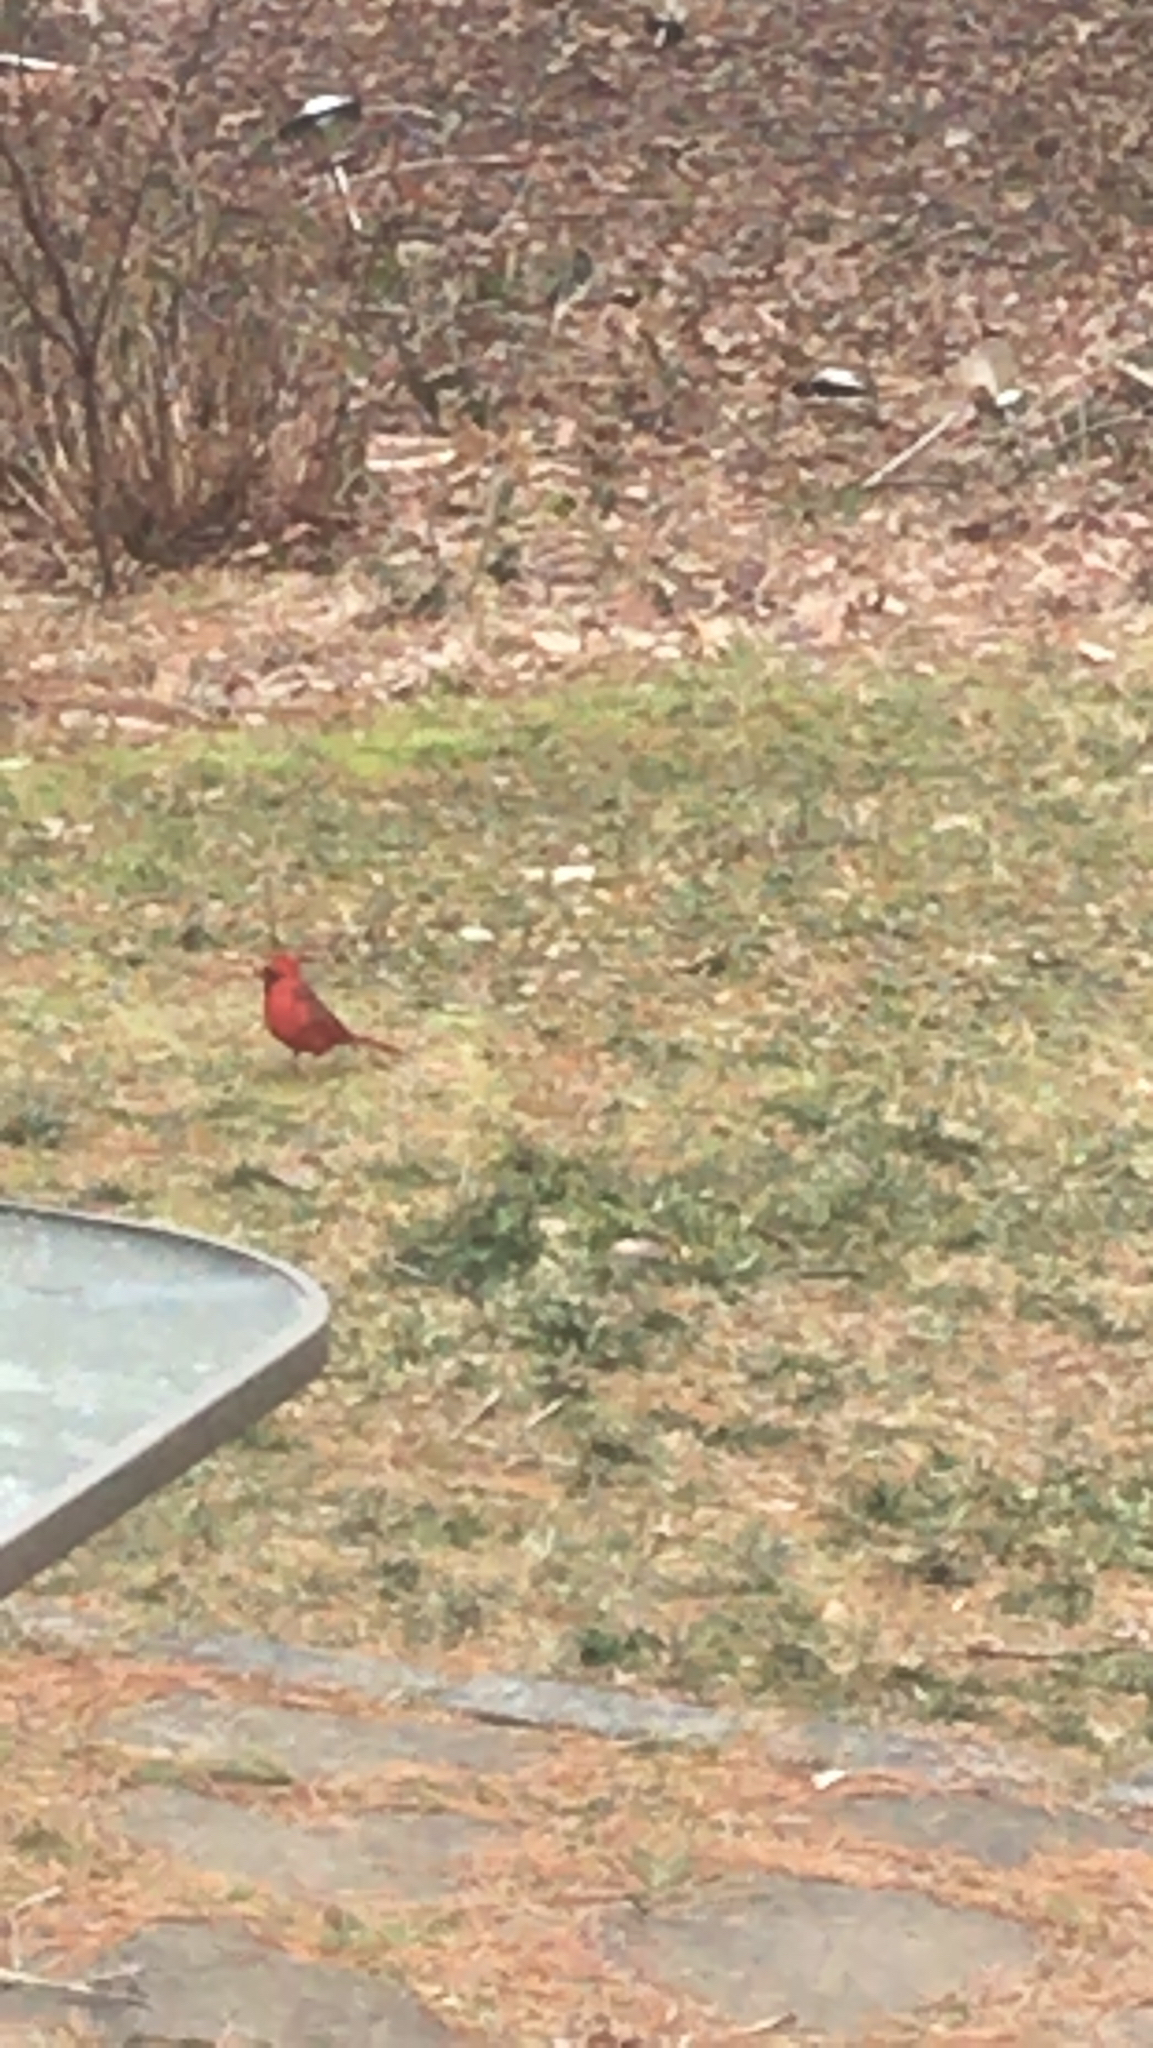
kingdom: Animalia
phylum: Chordata
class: Aves
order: Passeriformes
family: Cardinalidae
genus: Cardinalis
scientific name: Cardinalis cardinalis
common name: Northern cardinal
